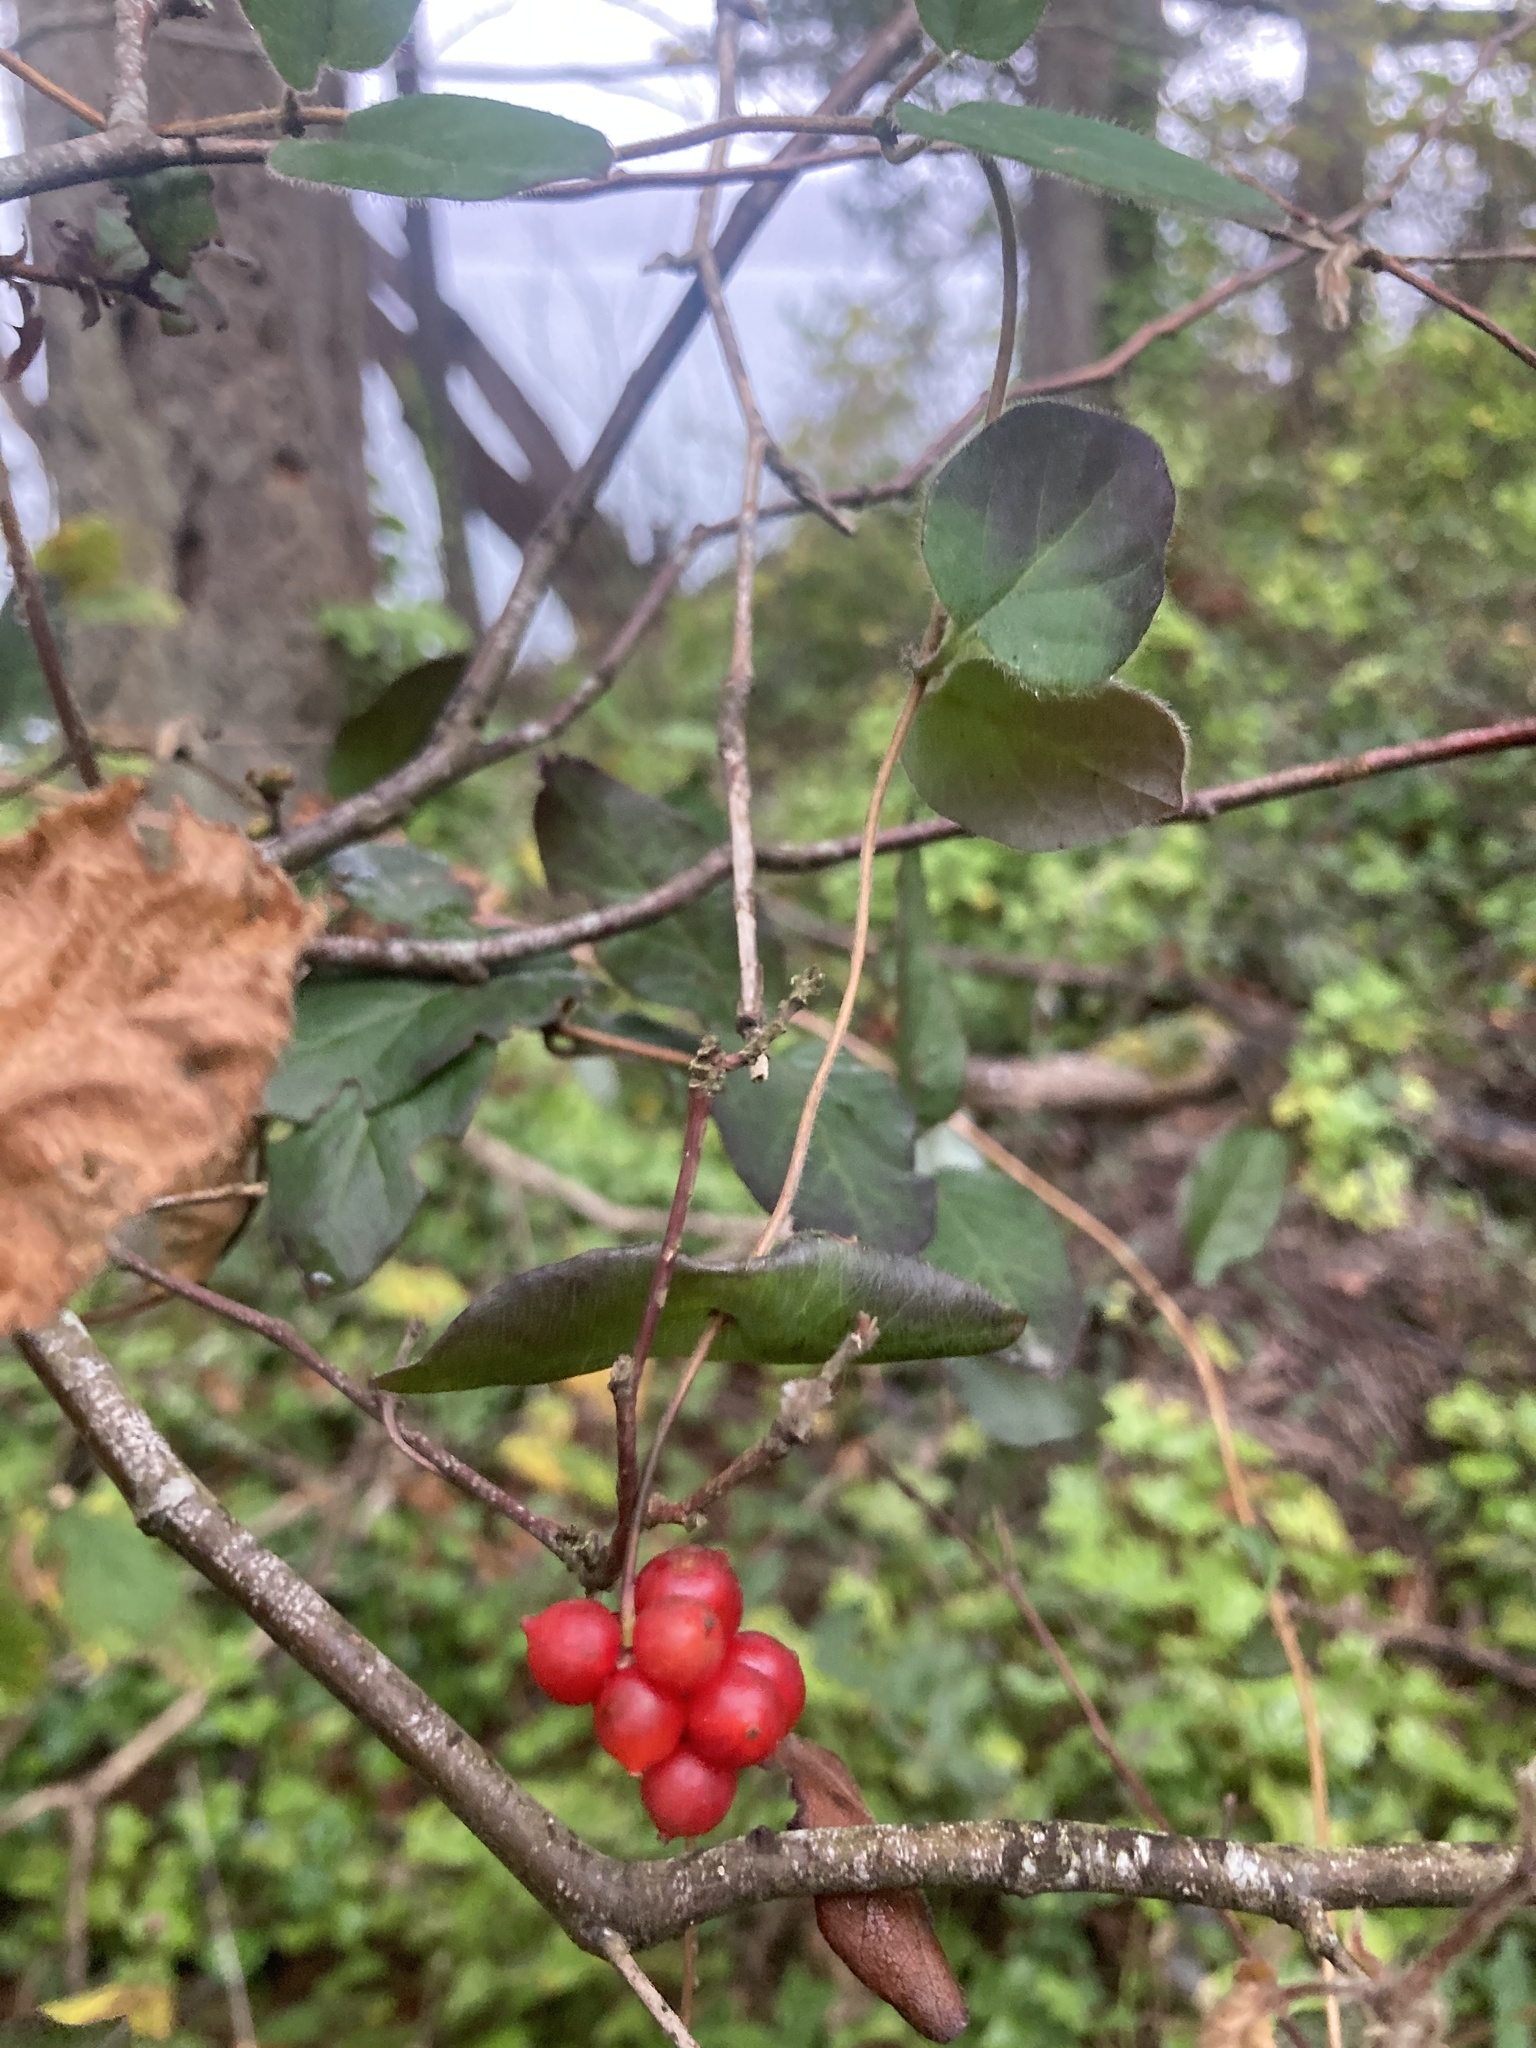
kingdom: Plantae
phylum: Tracheophyta
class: Magnoliopsida
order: Dipsacales
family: Caprifoliaceae
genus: Lonicera
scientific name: Lonicera hispidula
